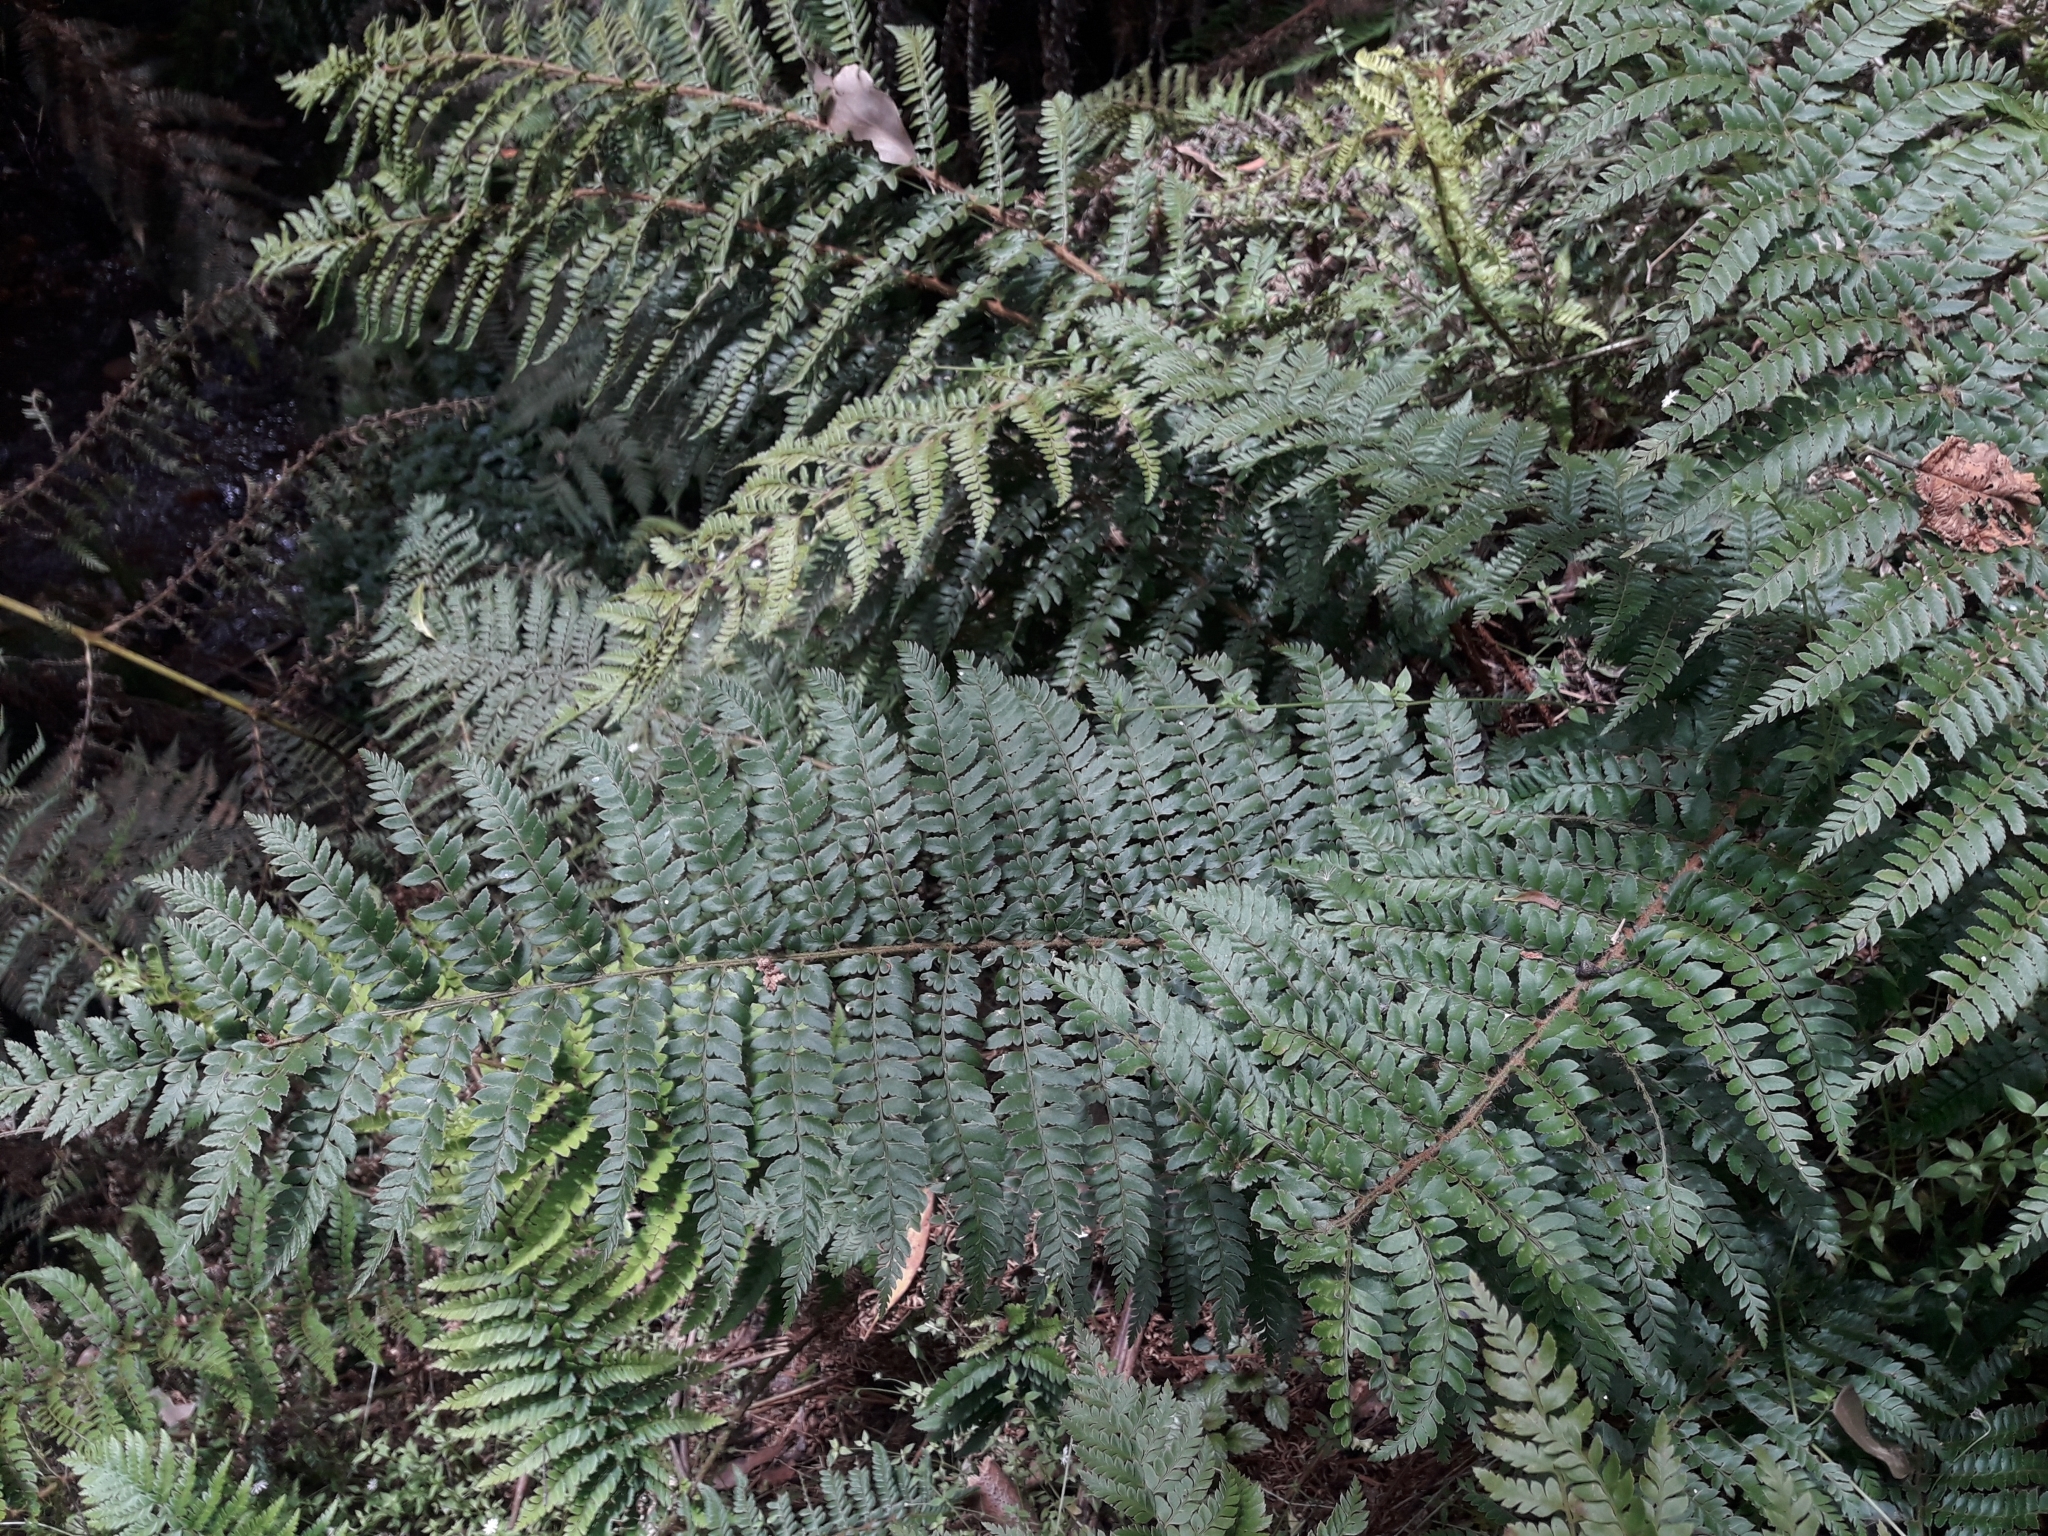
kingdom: Plantae
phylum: Tracheophyta
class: Polypodiopsida
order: Polypodiales
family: Dryopteridaceae
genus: Polystichum
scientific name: Polystichum proliferum
